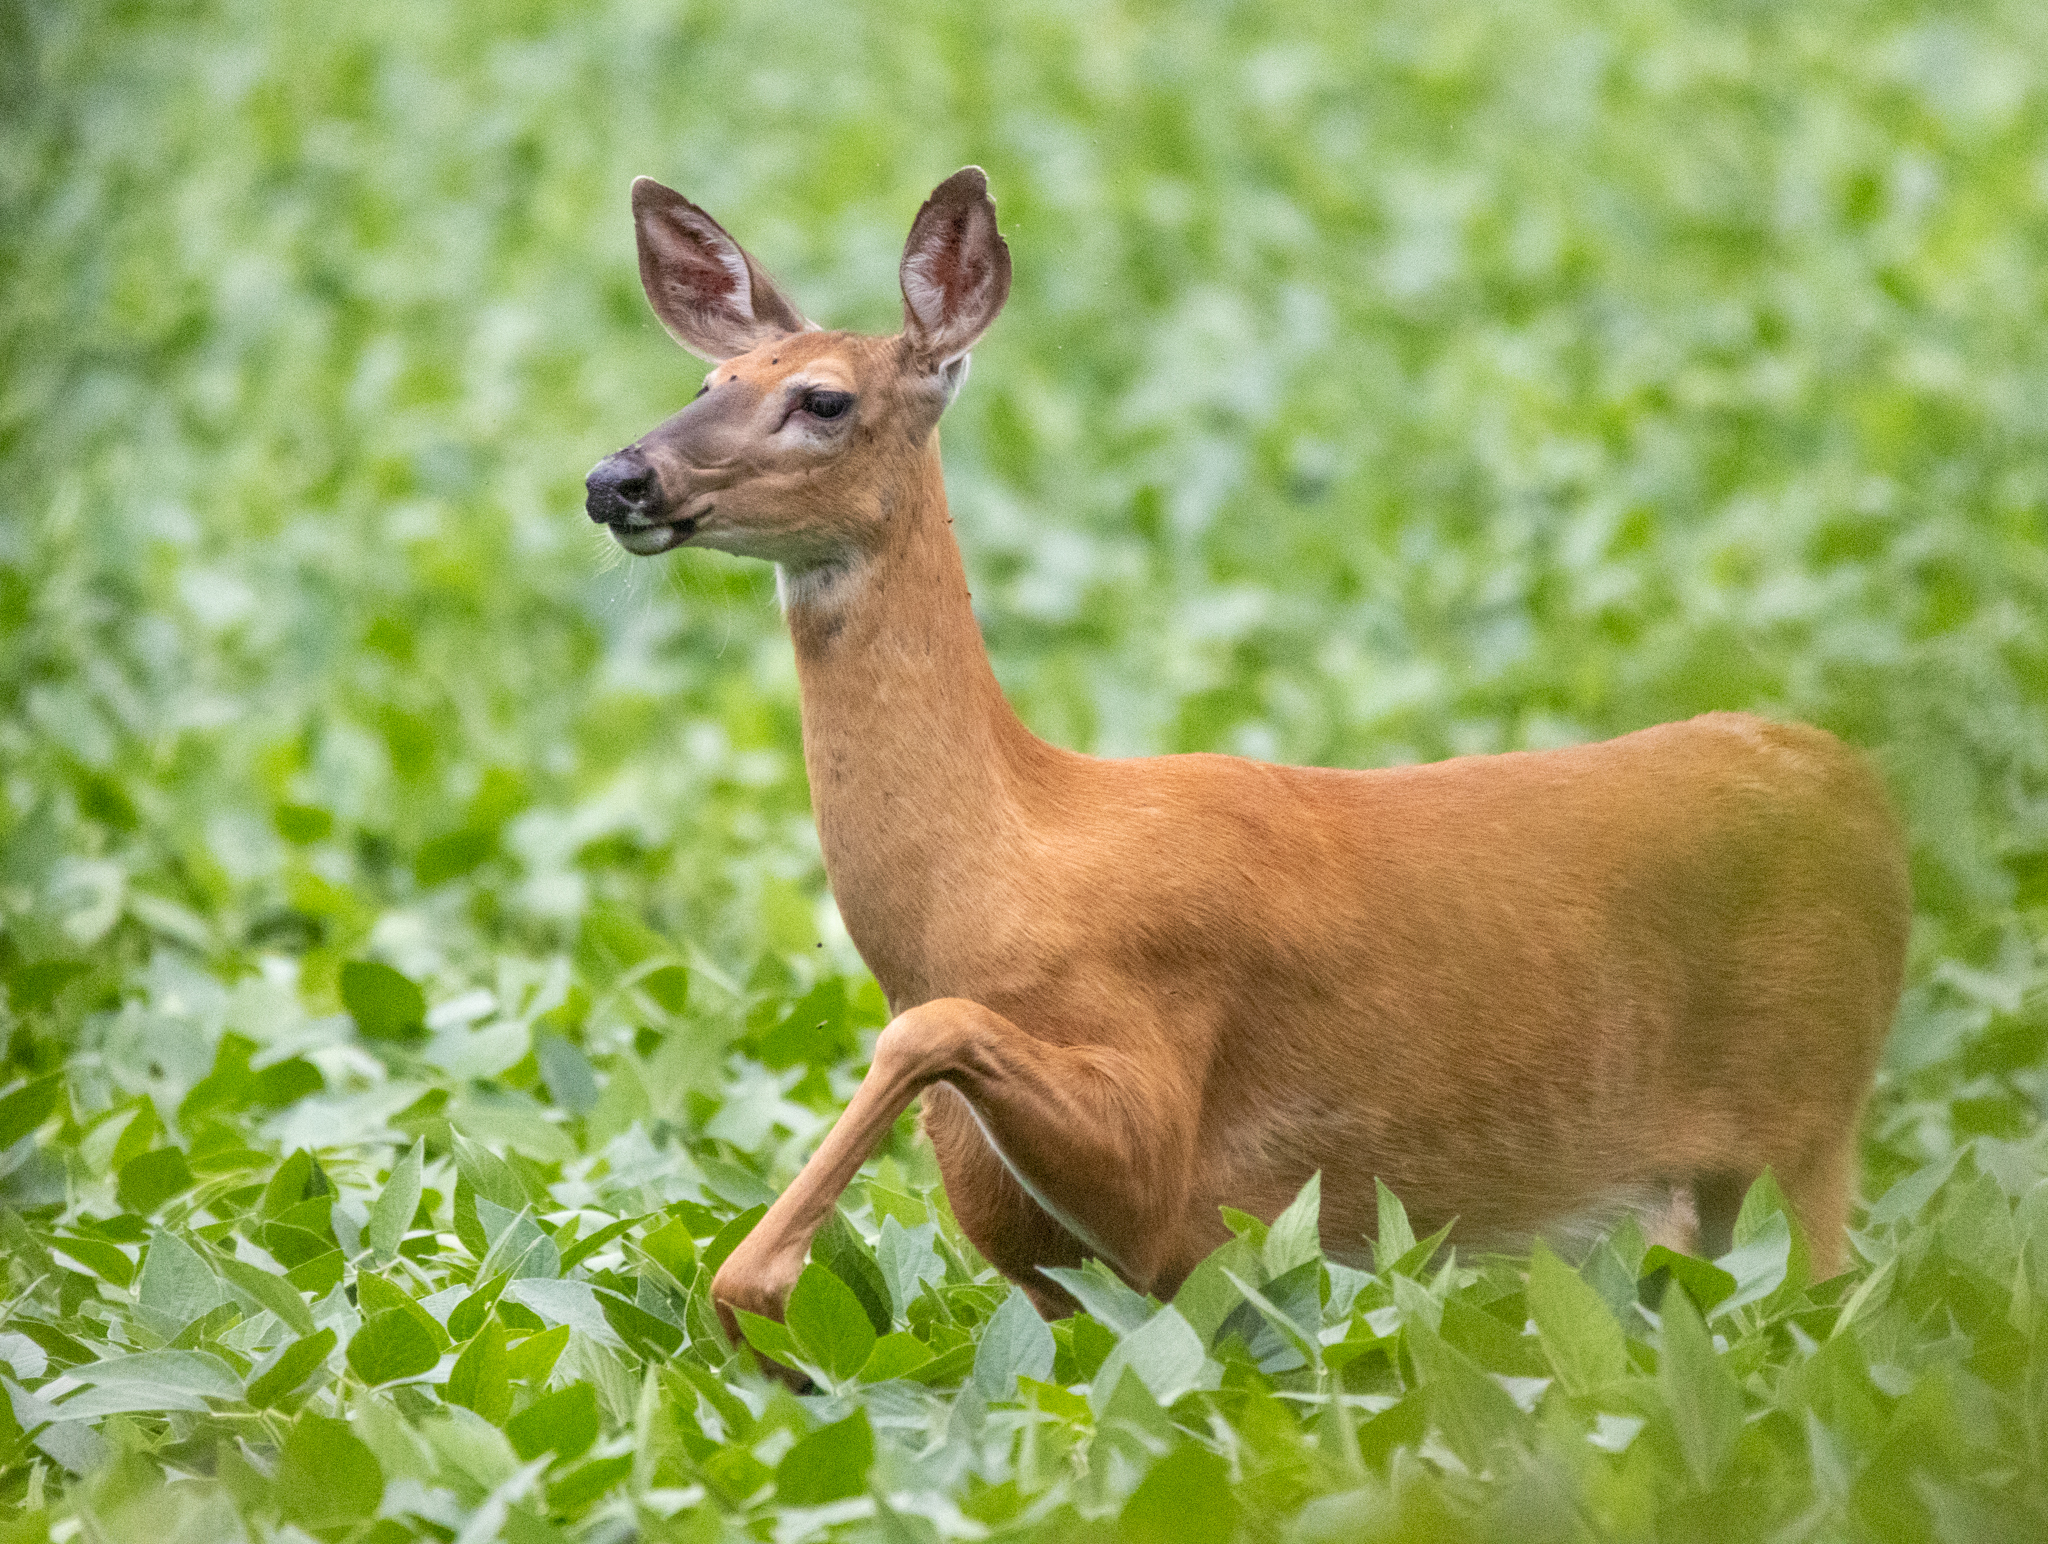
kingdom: Animalia
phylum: Chordata
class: Mammalia
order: Artiodactyla
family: Cervidae
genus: Odocoileus
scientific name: Odocoileus virginianus
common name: White-tailed deer
